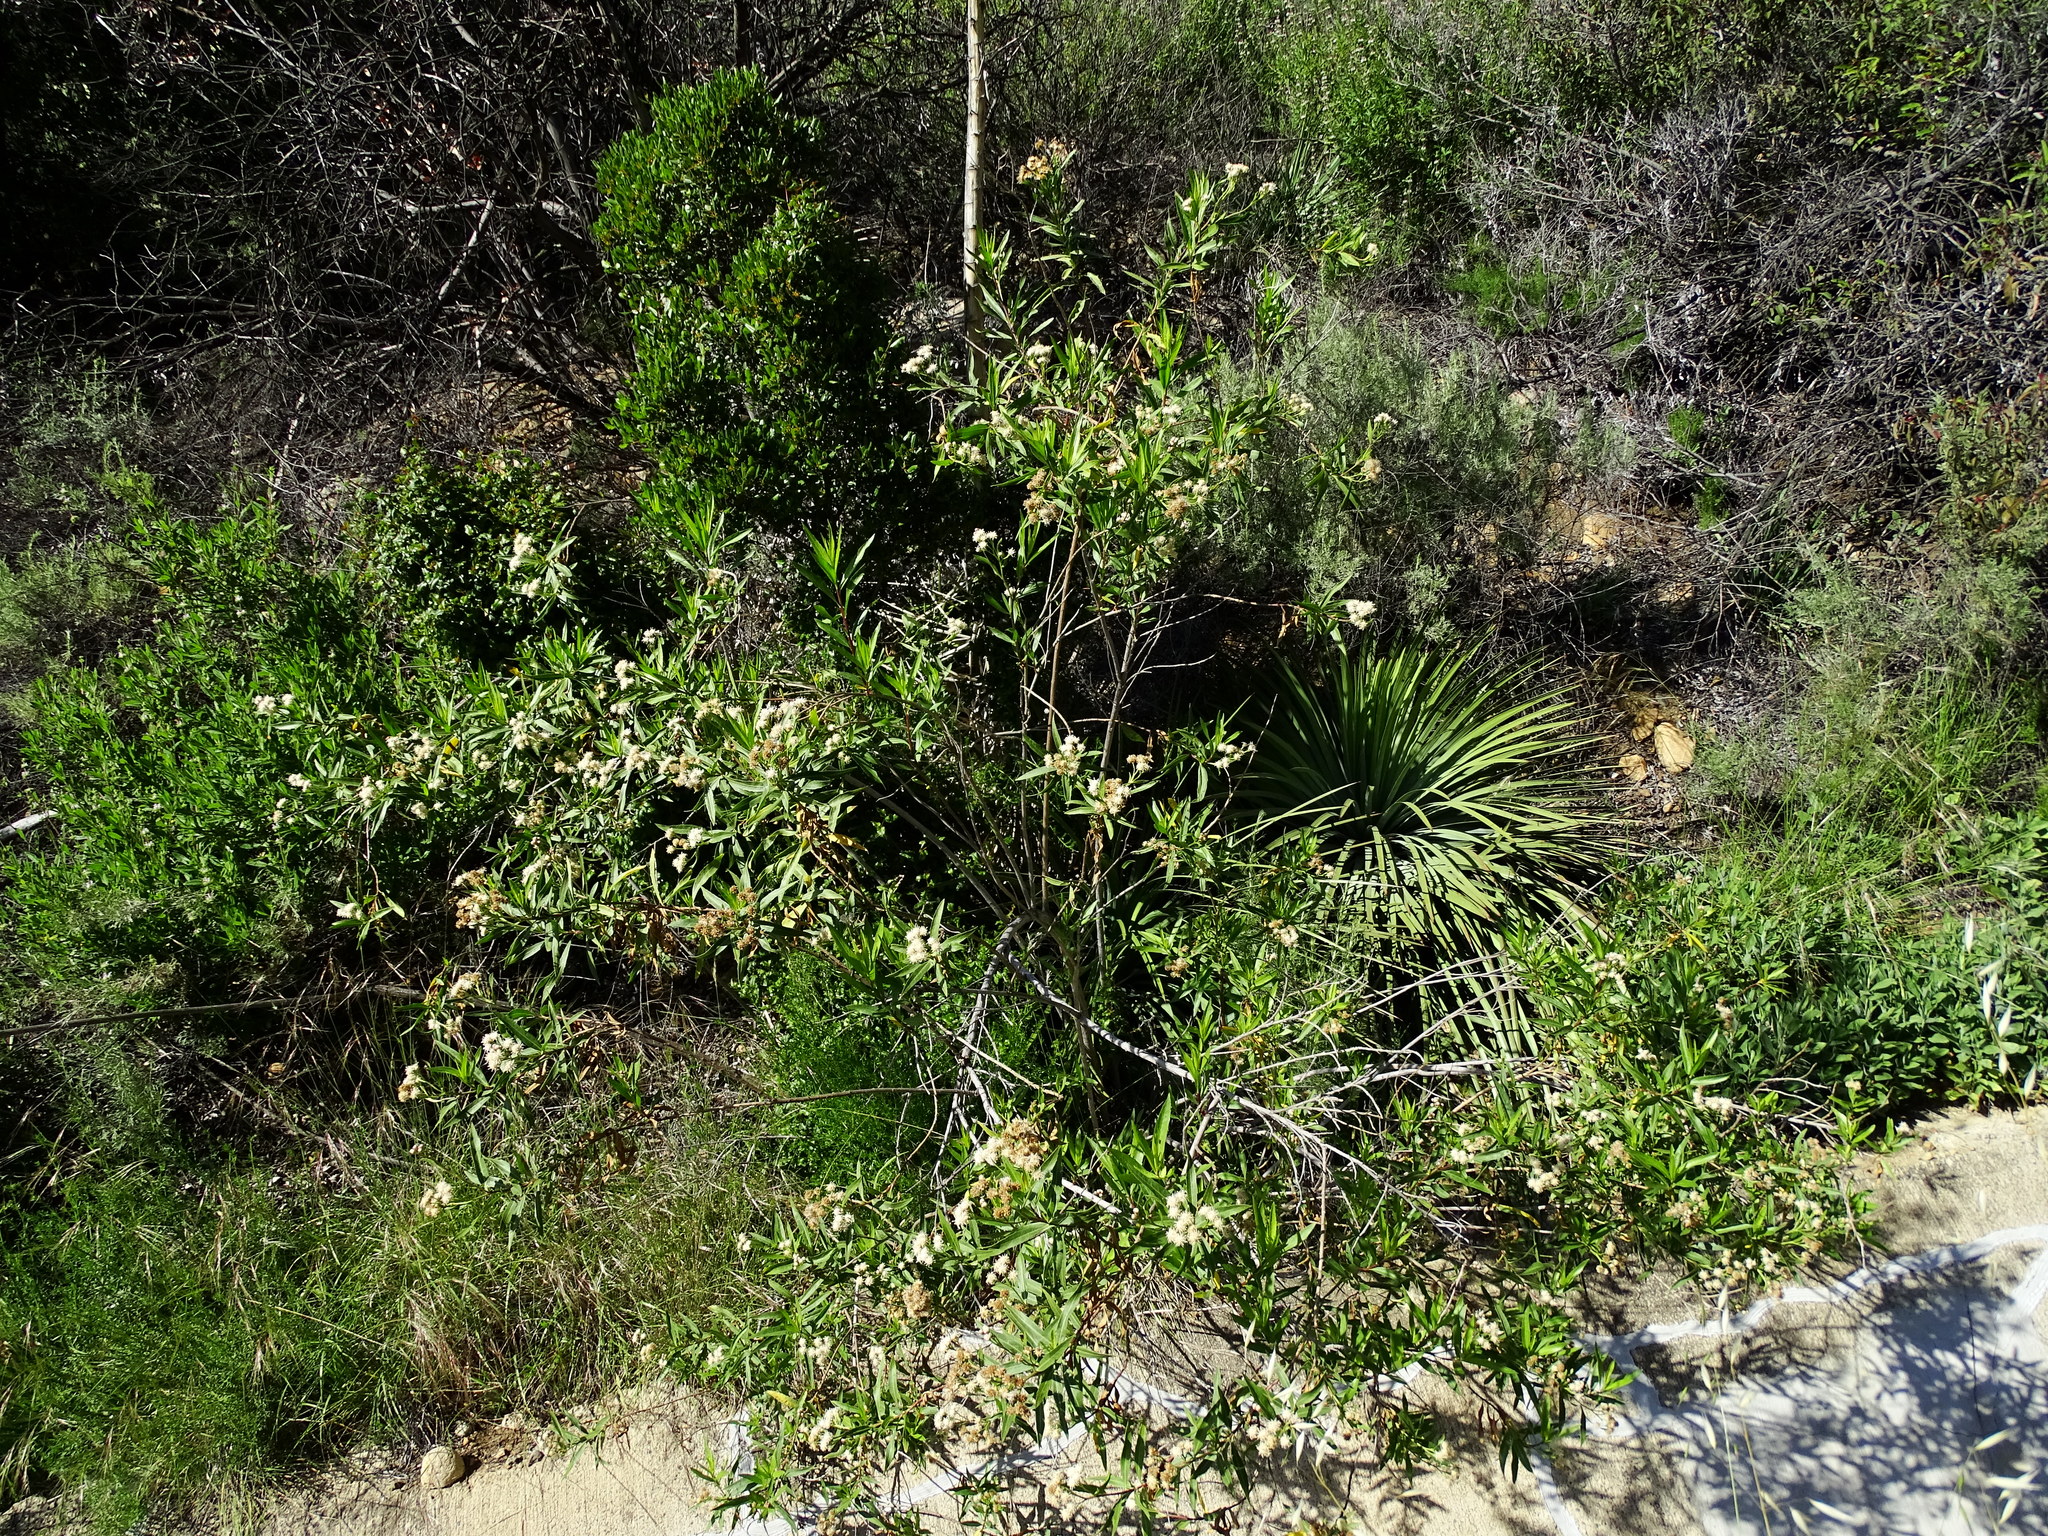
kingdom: Plantae
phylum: Tracheophyta
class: Magnoliopsida
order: Asterales
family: Asteraceae
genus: Baccharis
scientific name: Baccharis salicifolia
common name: Sticky baccharis
